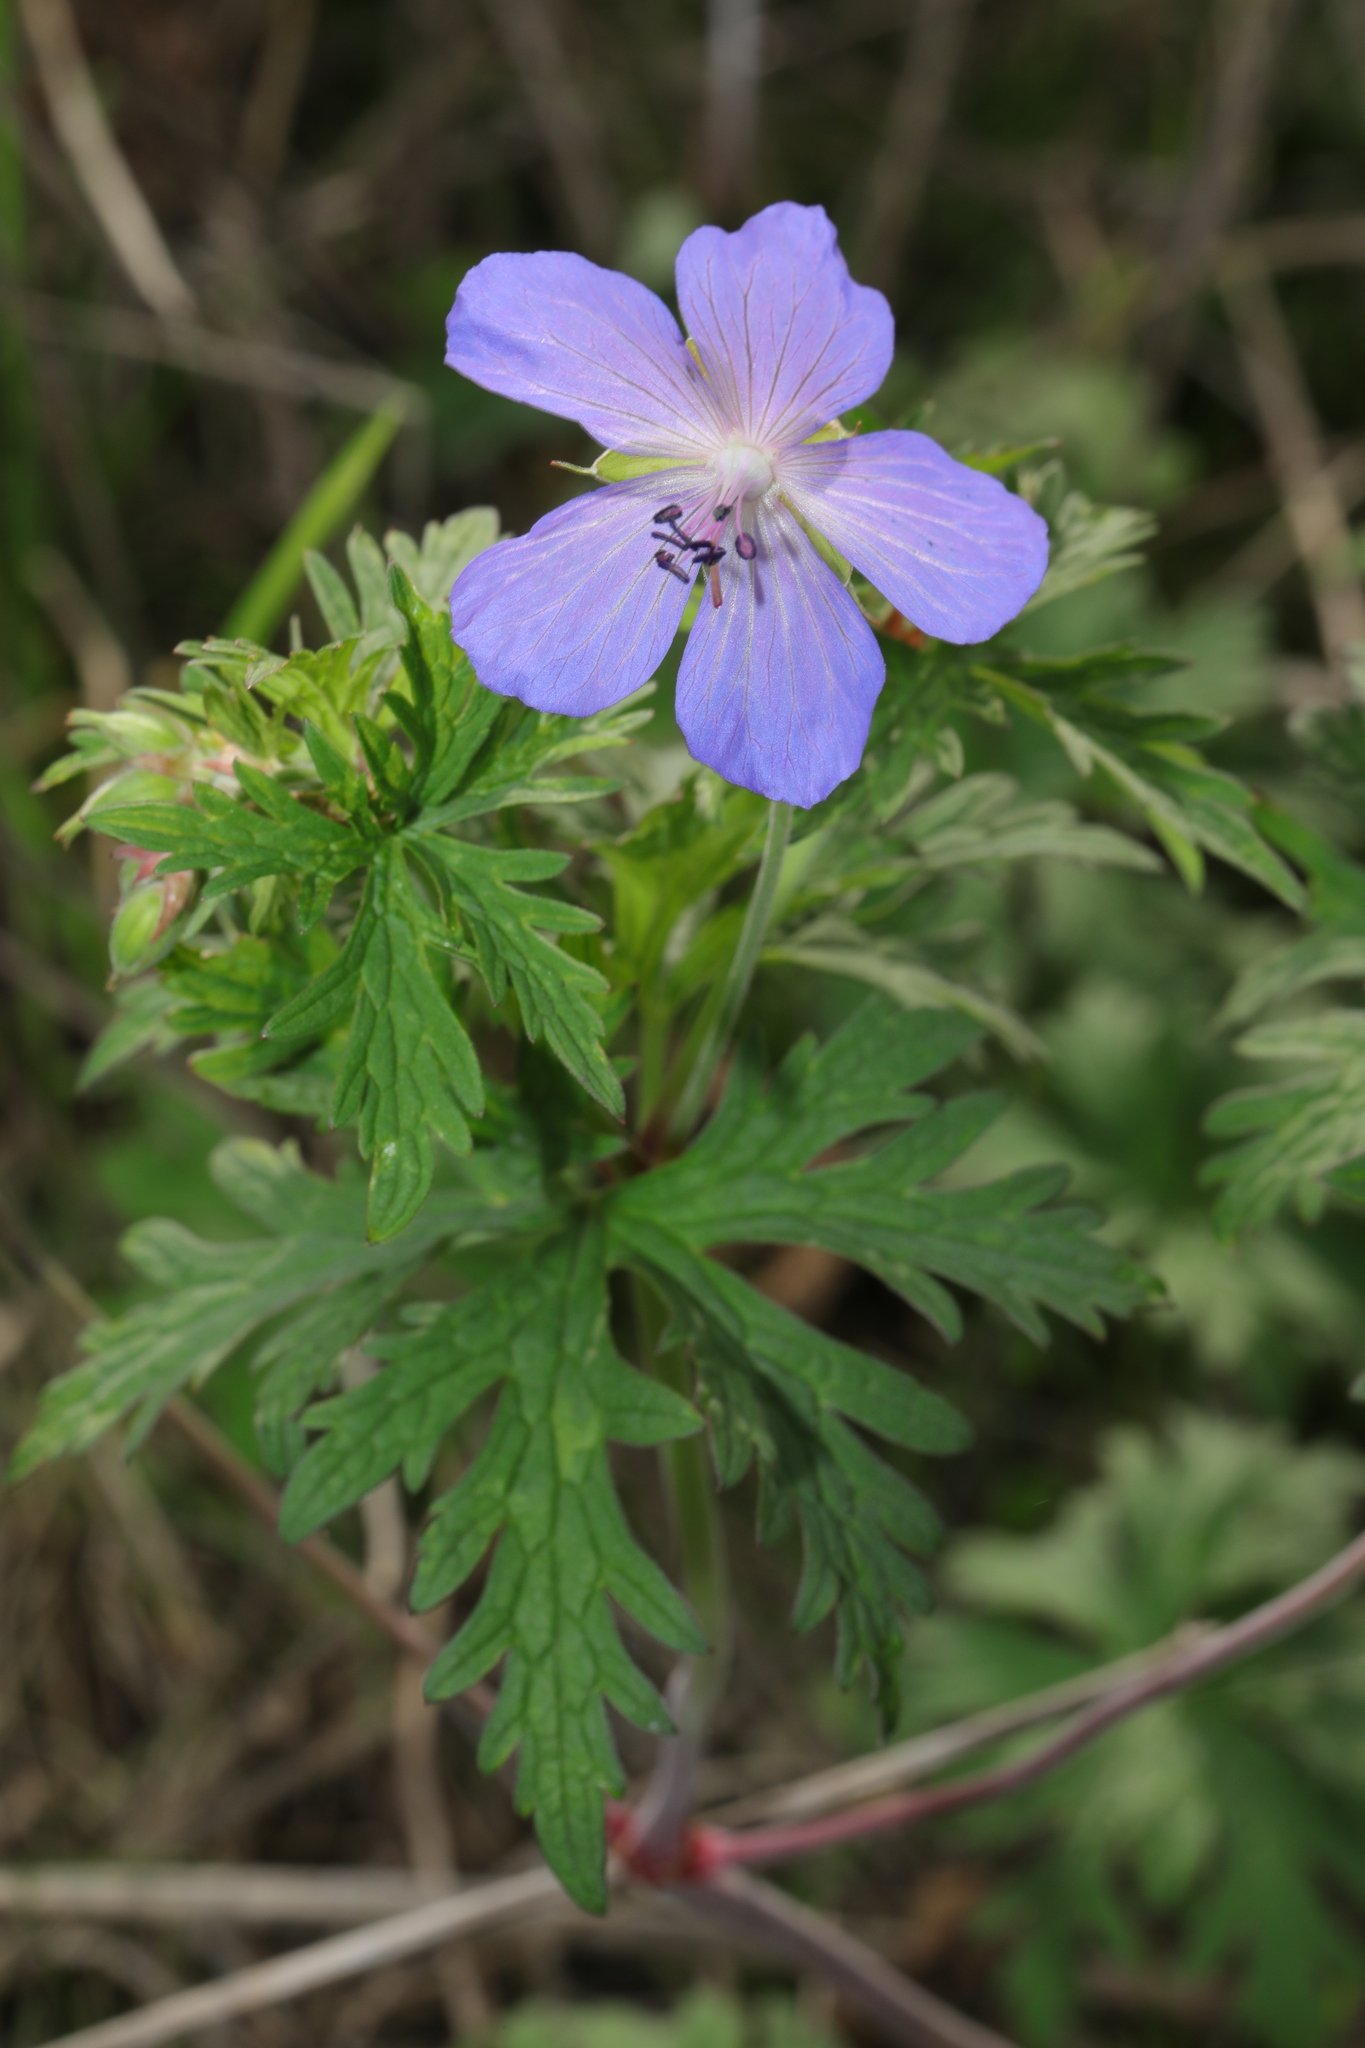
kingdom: Plantae
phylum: Tracheophyta
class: Magnoliopsida
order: Geraniales
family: Geraniaceae
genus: Geranium
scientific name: Geranium pratense
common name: Meadow crane's-bill
